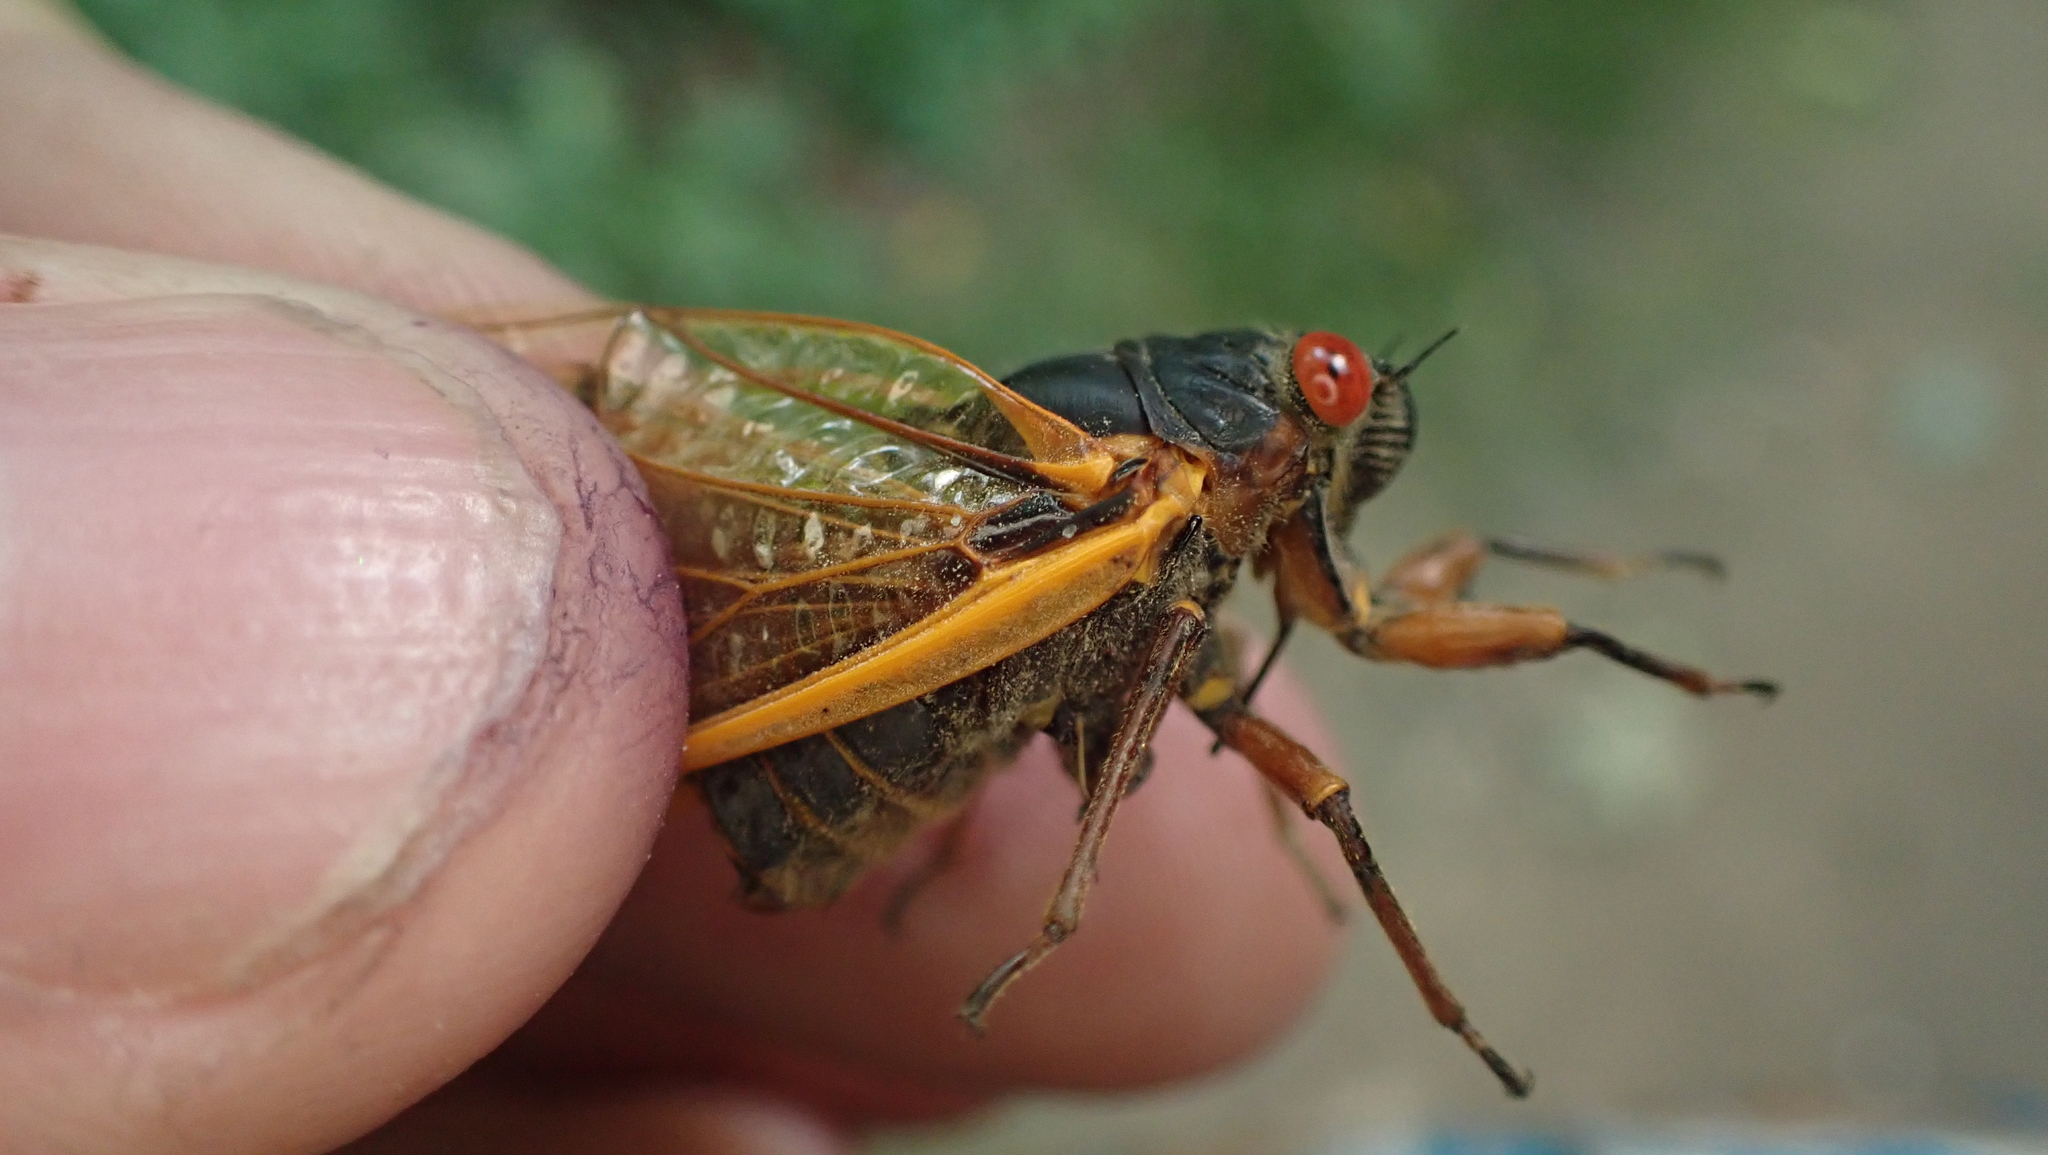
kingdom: Animalia
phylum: Arthropoda
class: Insecta
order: Hemiptera
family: Cicadidae
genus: Magicicada
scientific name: Magicicada septendecim
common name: Periodical cicada
